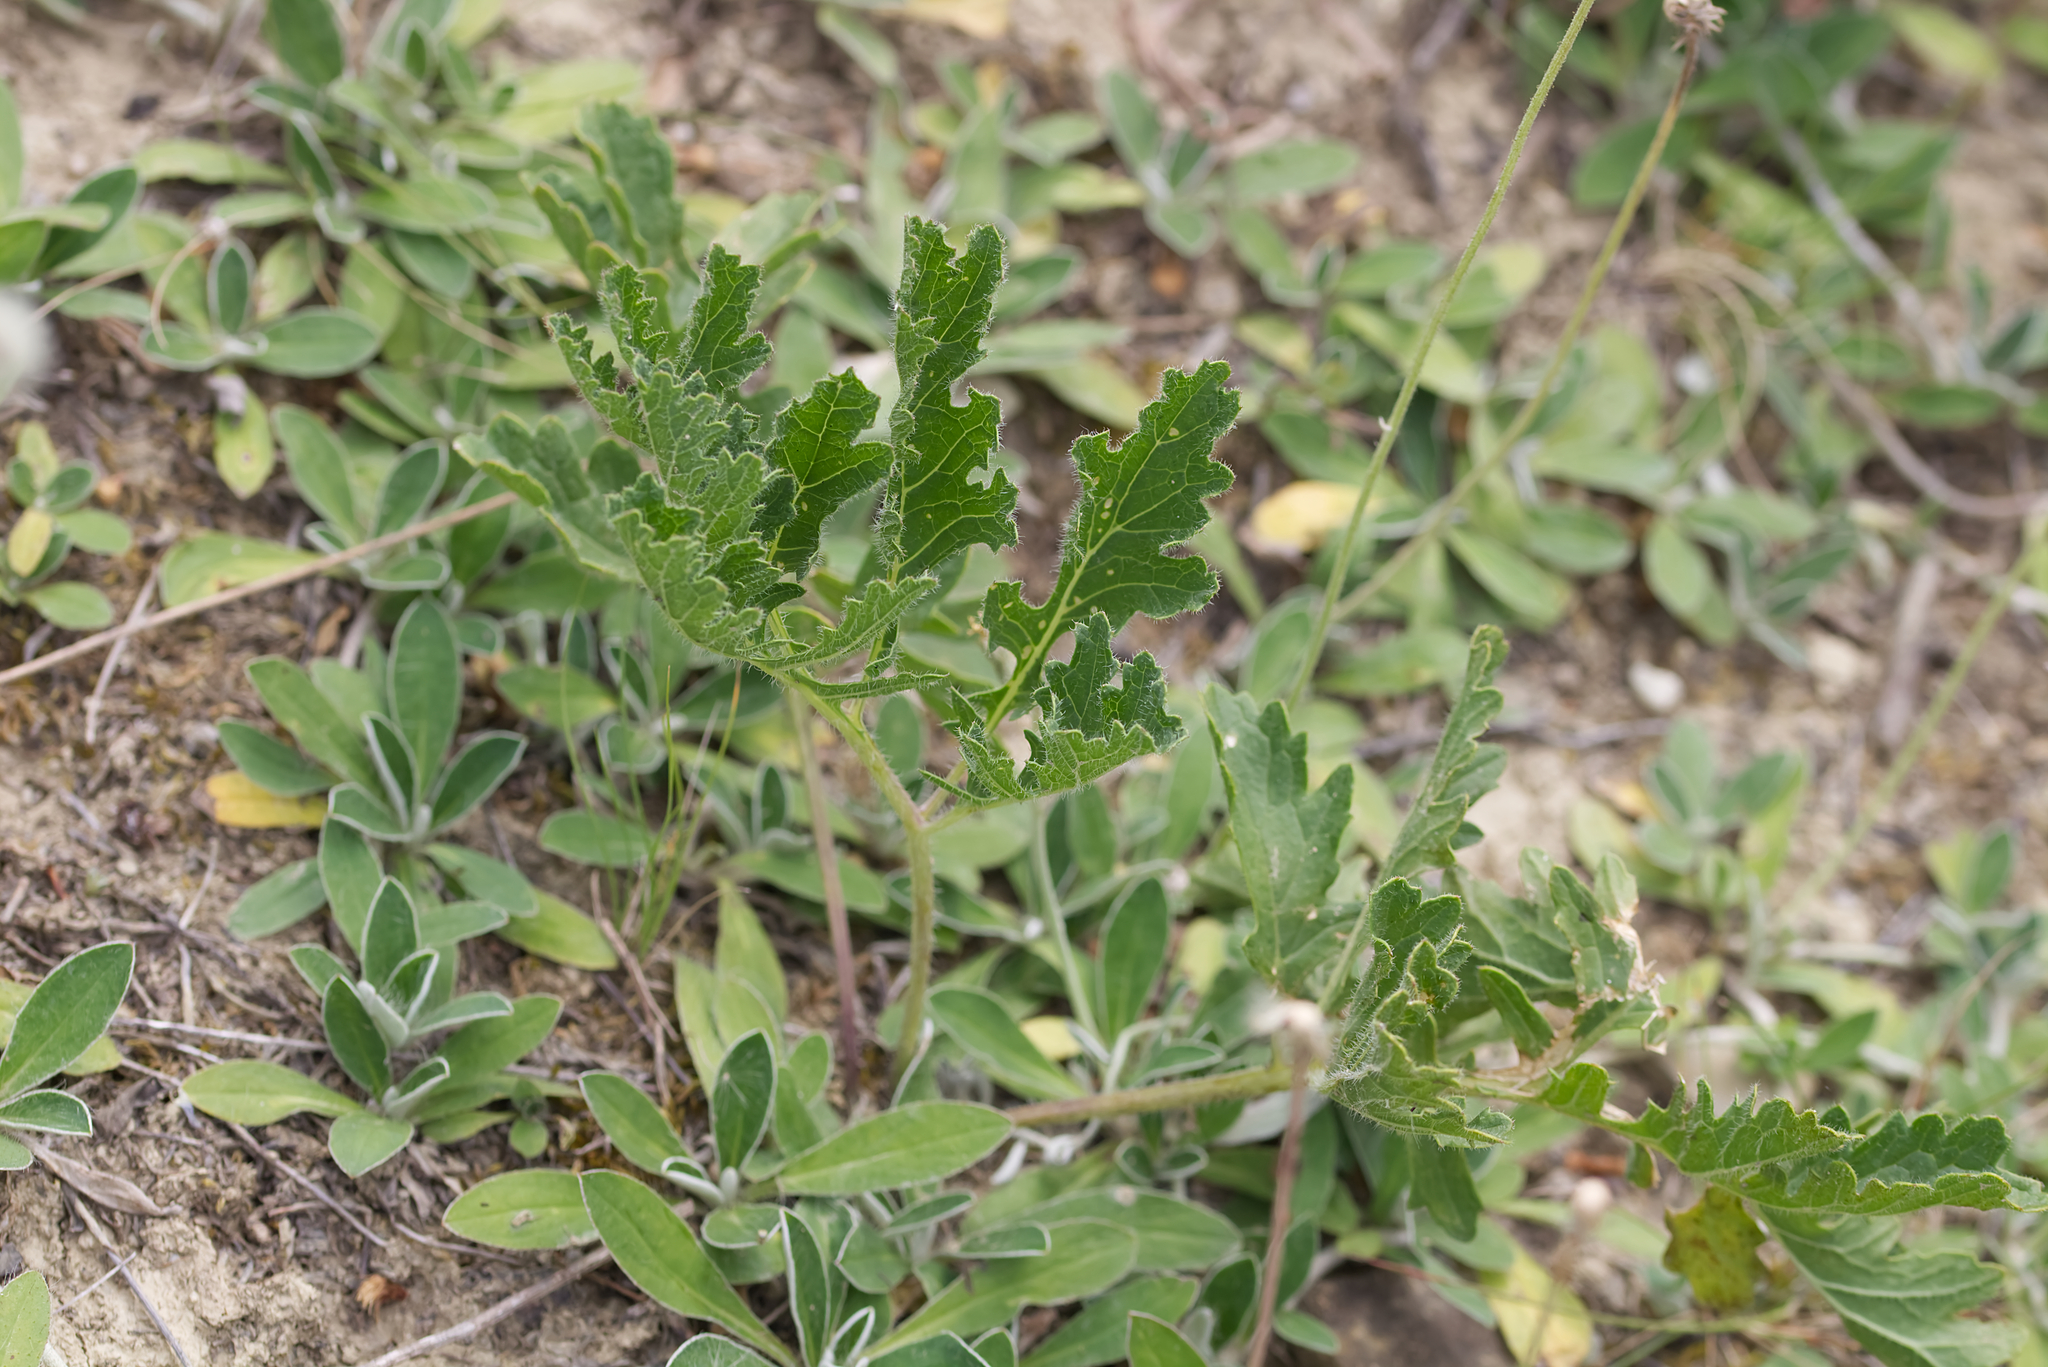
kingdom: Plantae
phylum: Tracheophyta
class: Magnoliopsida
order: Brassicales
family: Brassicaceae
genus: Crambe
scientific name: Crambe tataria
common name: Tartarian breadplant
